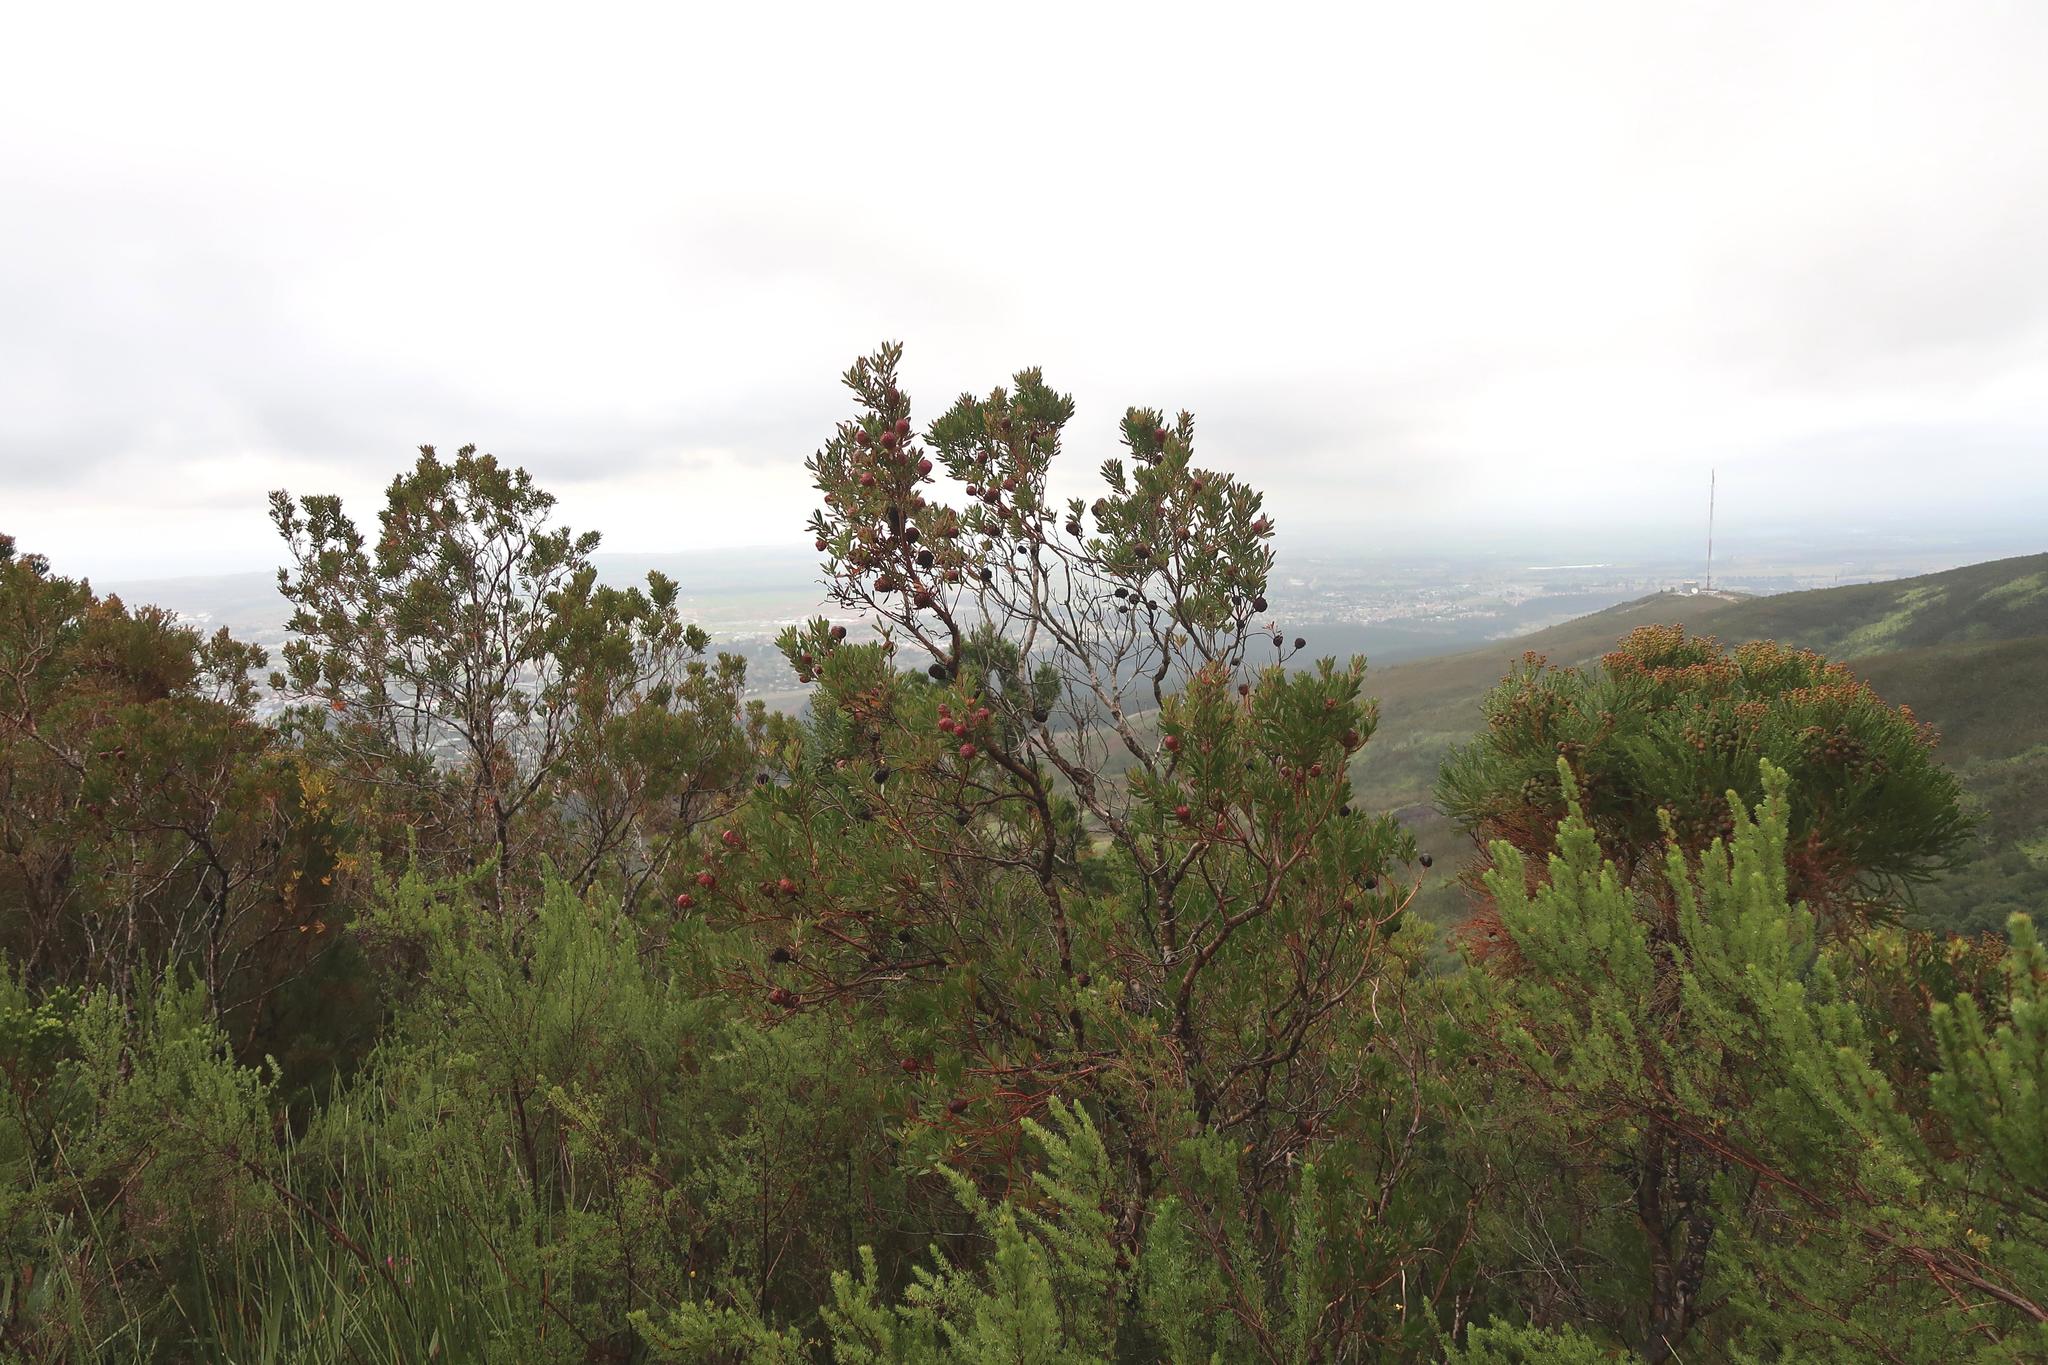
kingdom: Plantae
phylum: Tracheophyta
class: Magnoliopsida
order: Proteales
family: Proteaceae
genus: Leucadendron
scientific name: Leucadendron conicum
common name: Garden route conebush
